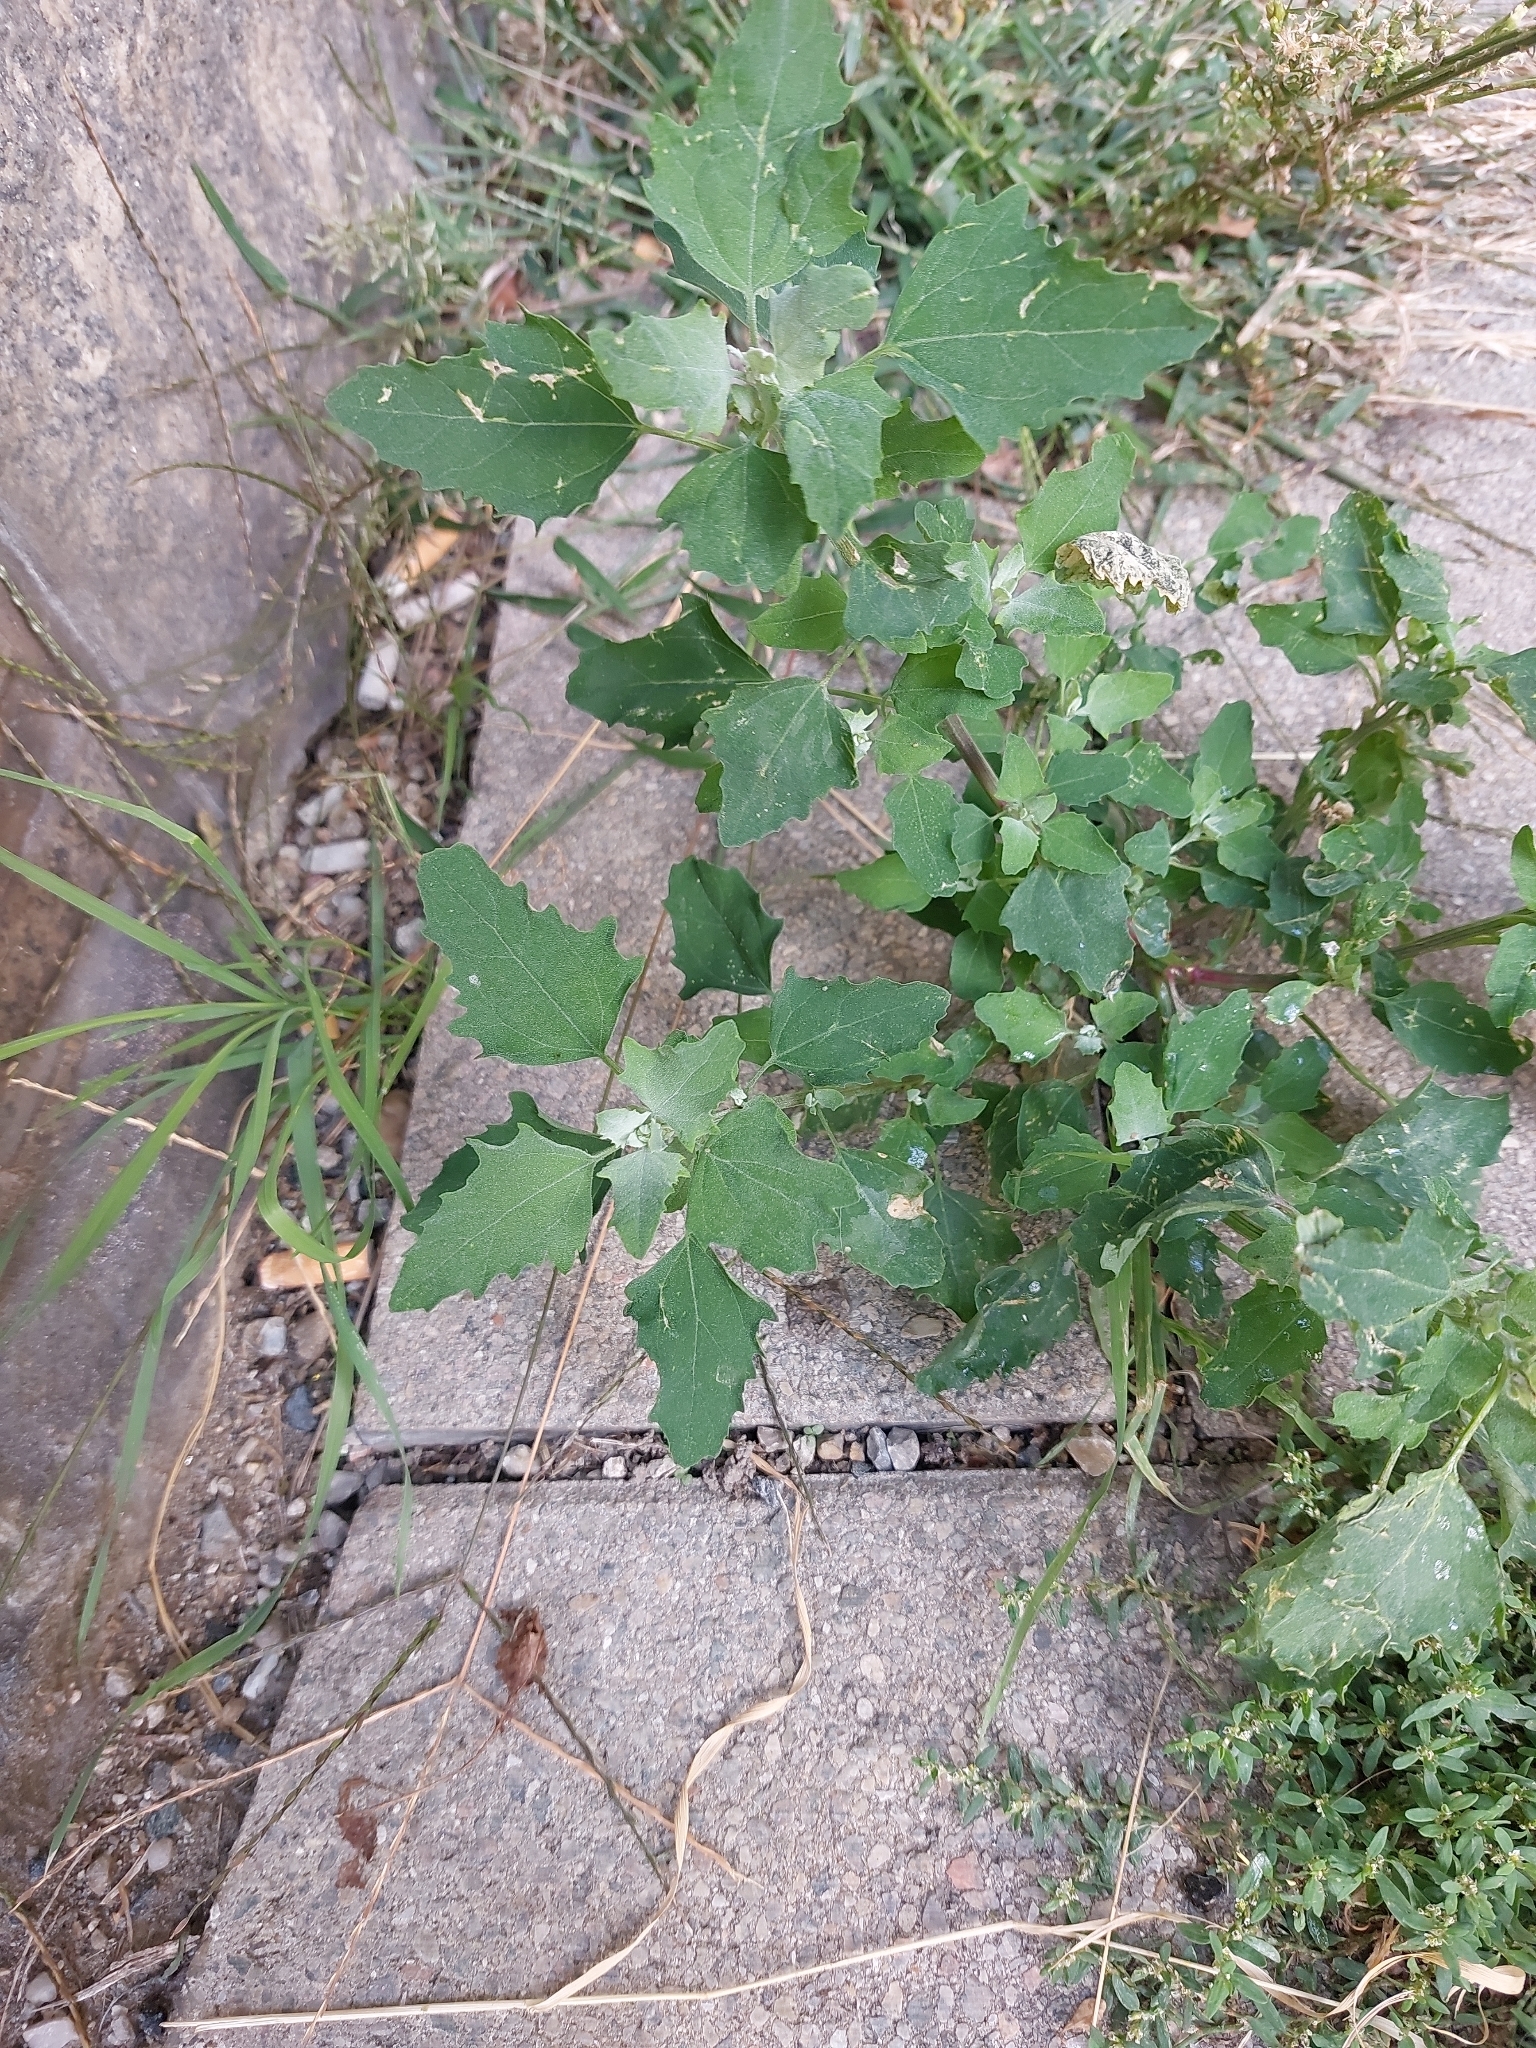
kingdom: Plantae
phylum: Tracheophyta
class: Magnoliopsida
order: Caryophyllales
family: Amaranthaceae
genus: Chenopodium
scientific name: Chenopodium album
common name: Fat-hen
